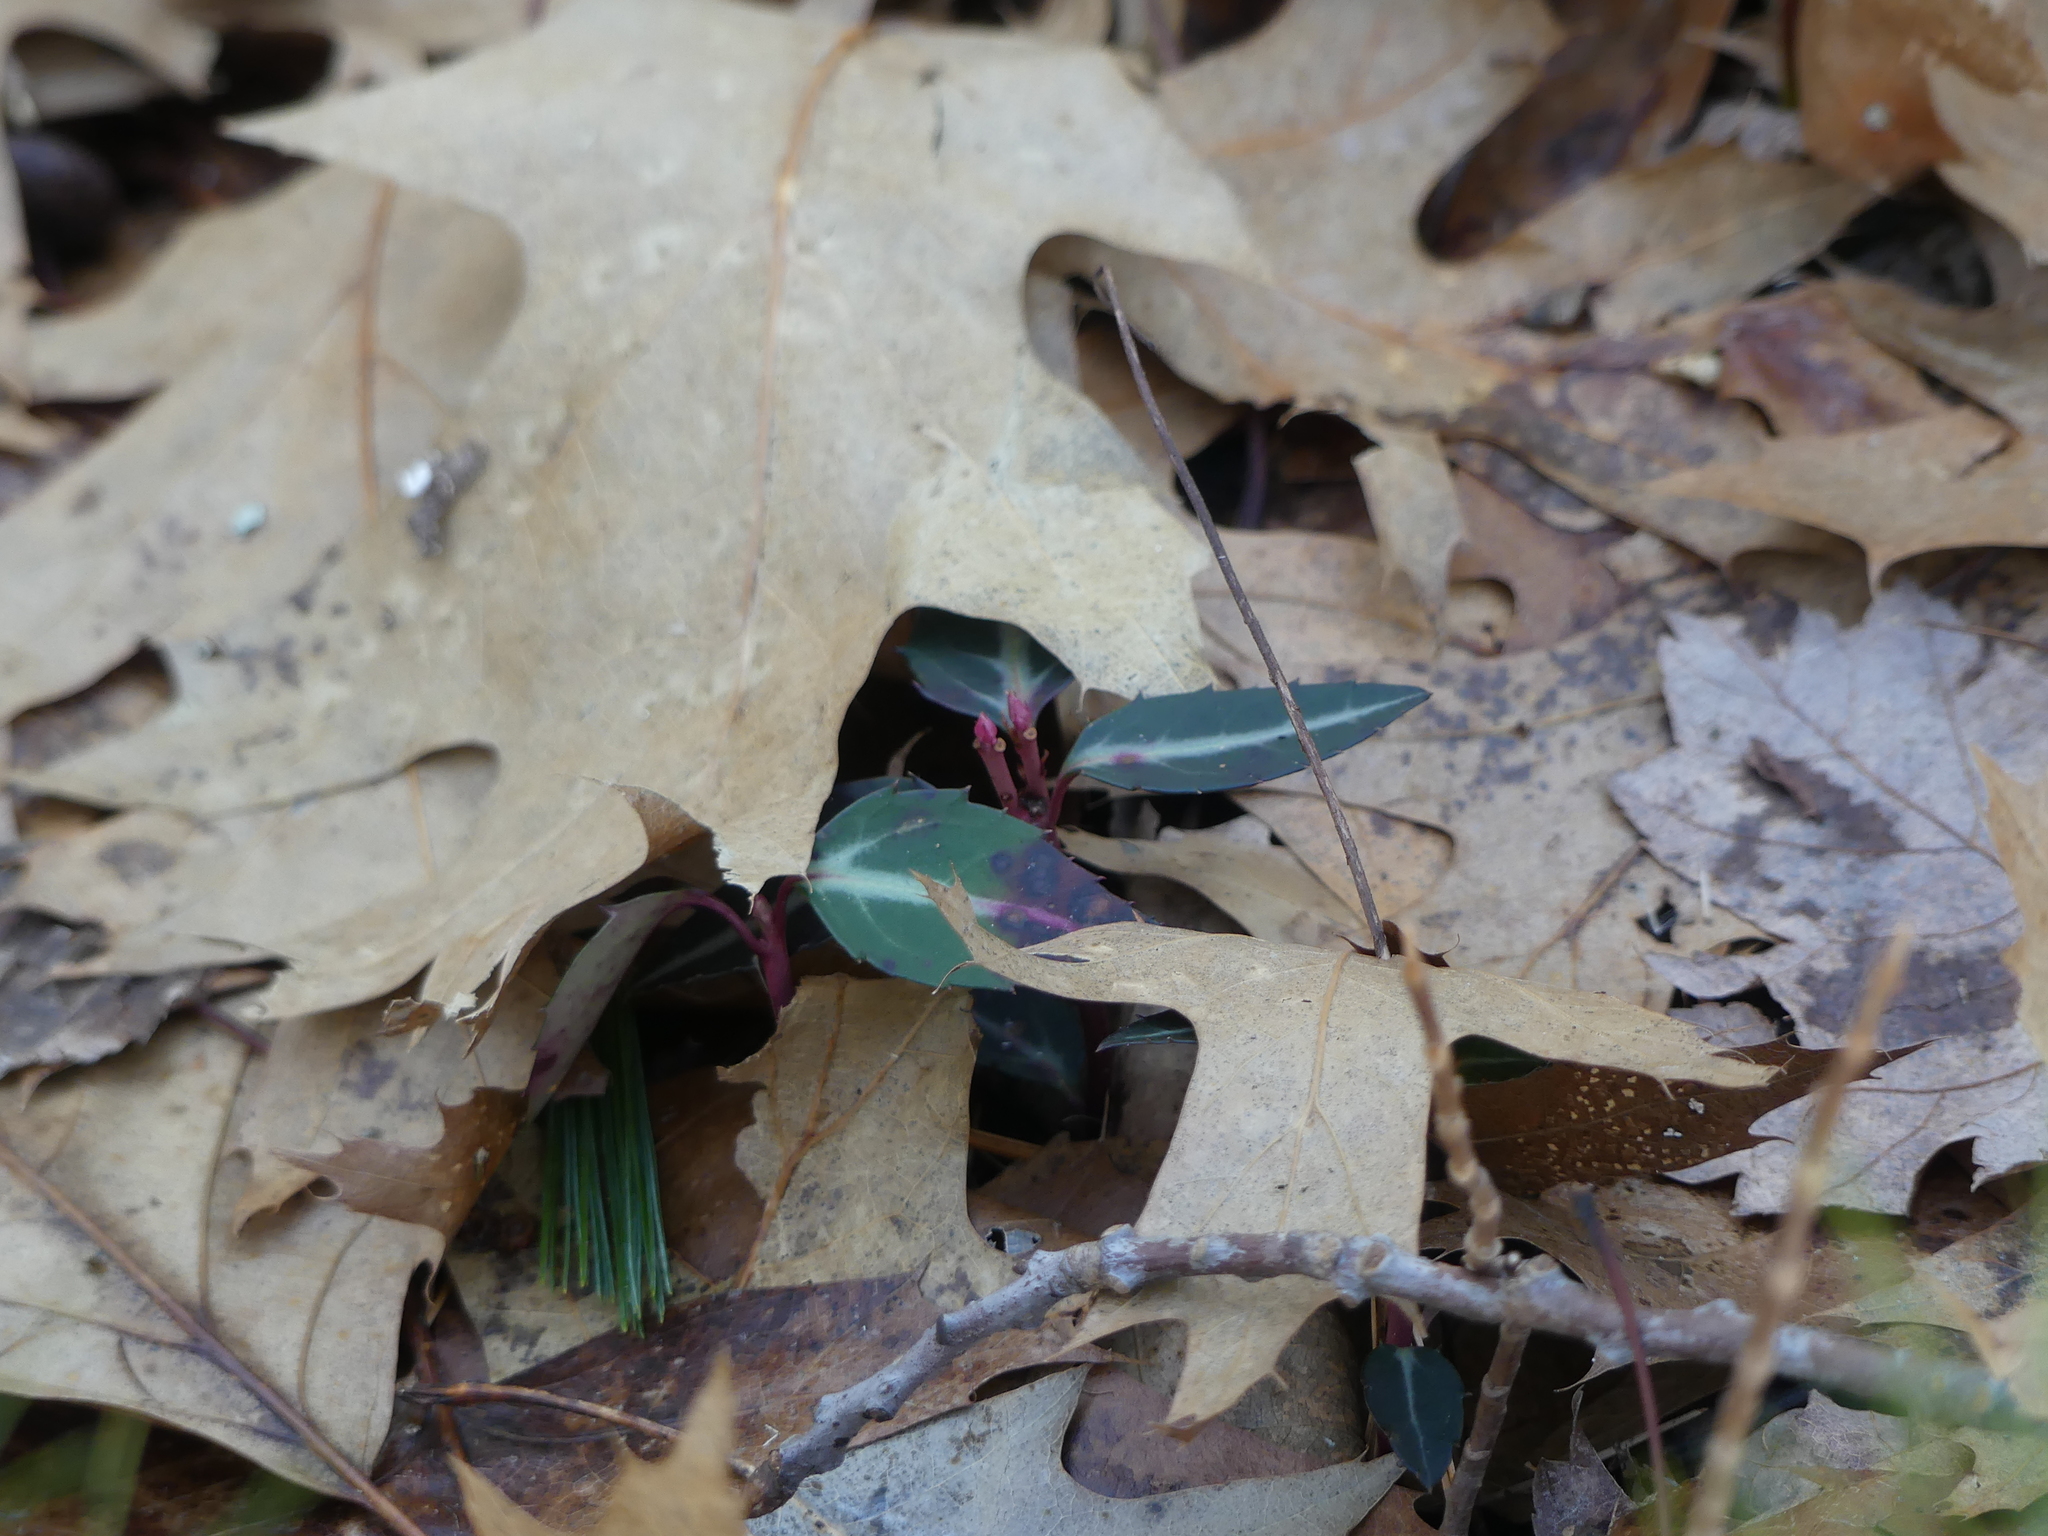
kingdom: Plantae
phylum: Tracheophyta
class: Magnoliopsida
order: Ericales
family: Ericaceae
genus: Chimaphila
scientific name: Chimaphila maculata
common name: Spotted pipsissewa
